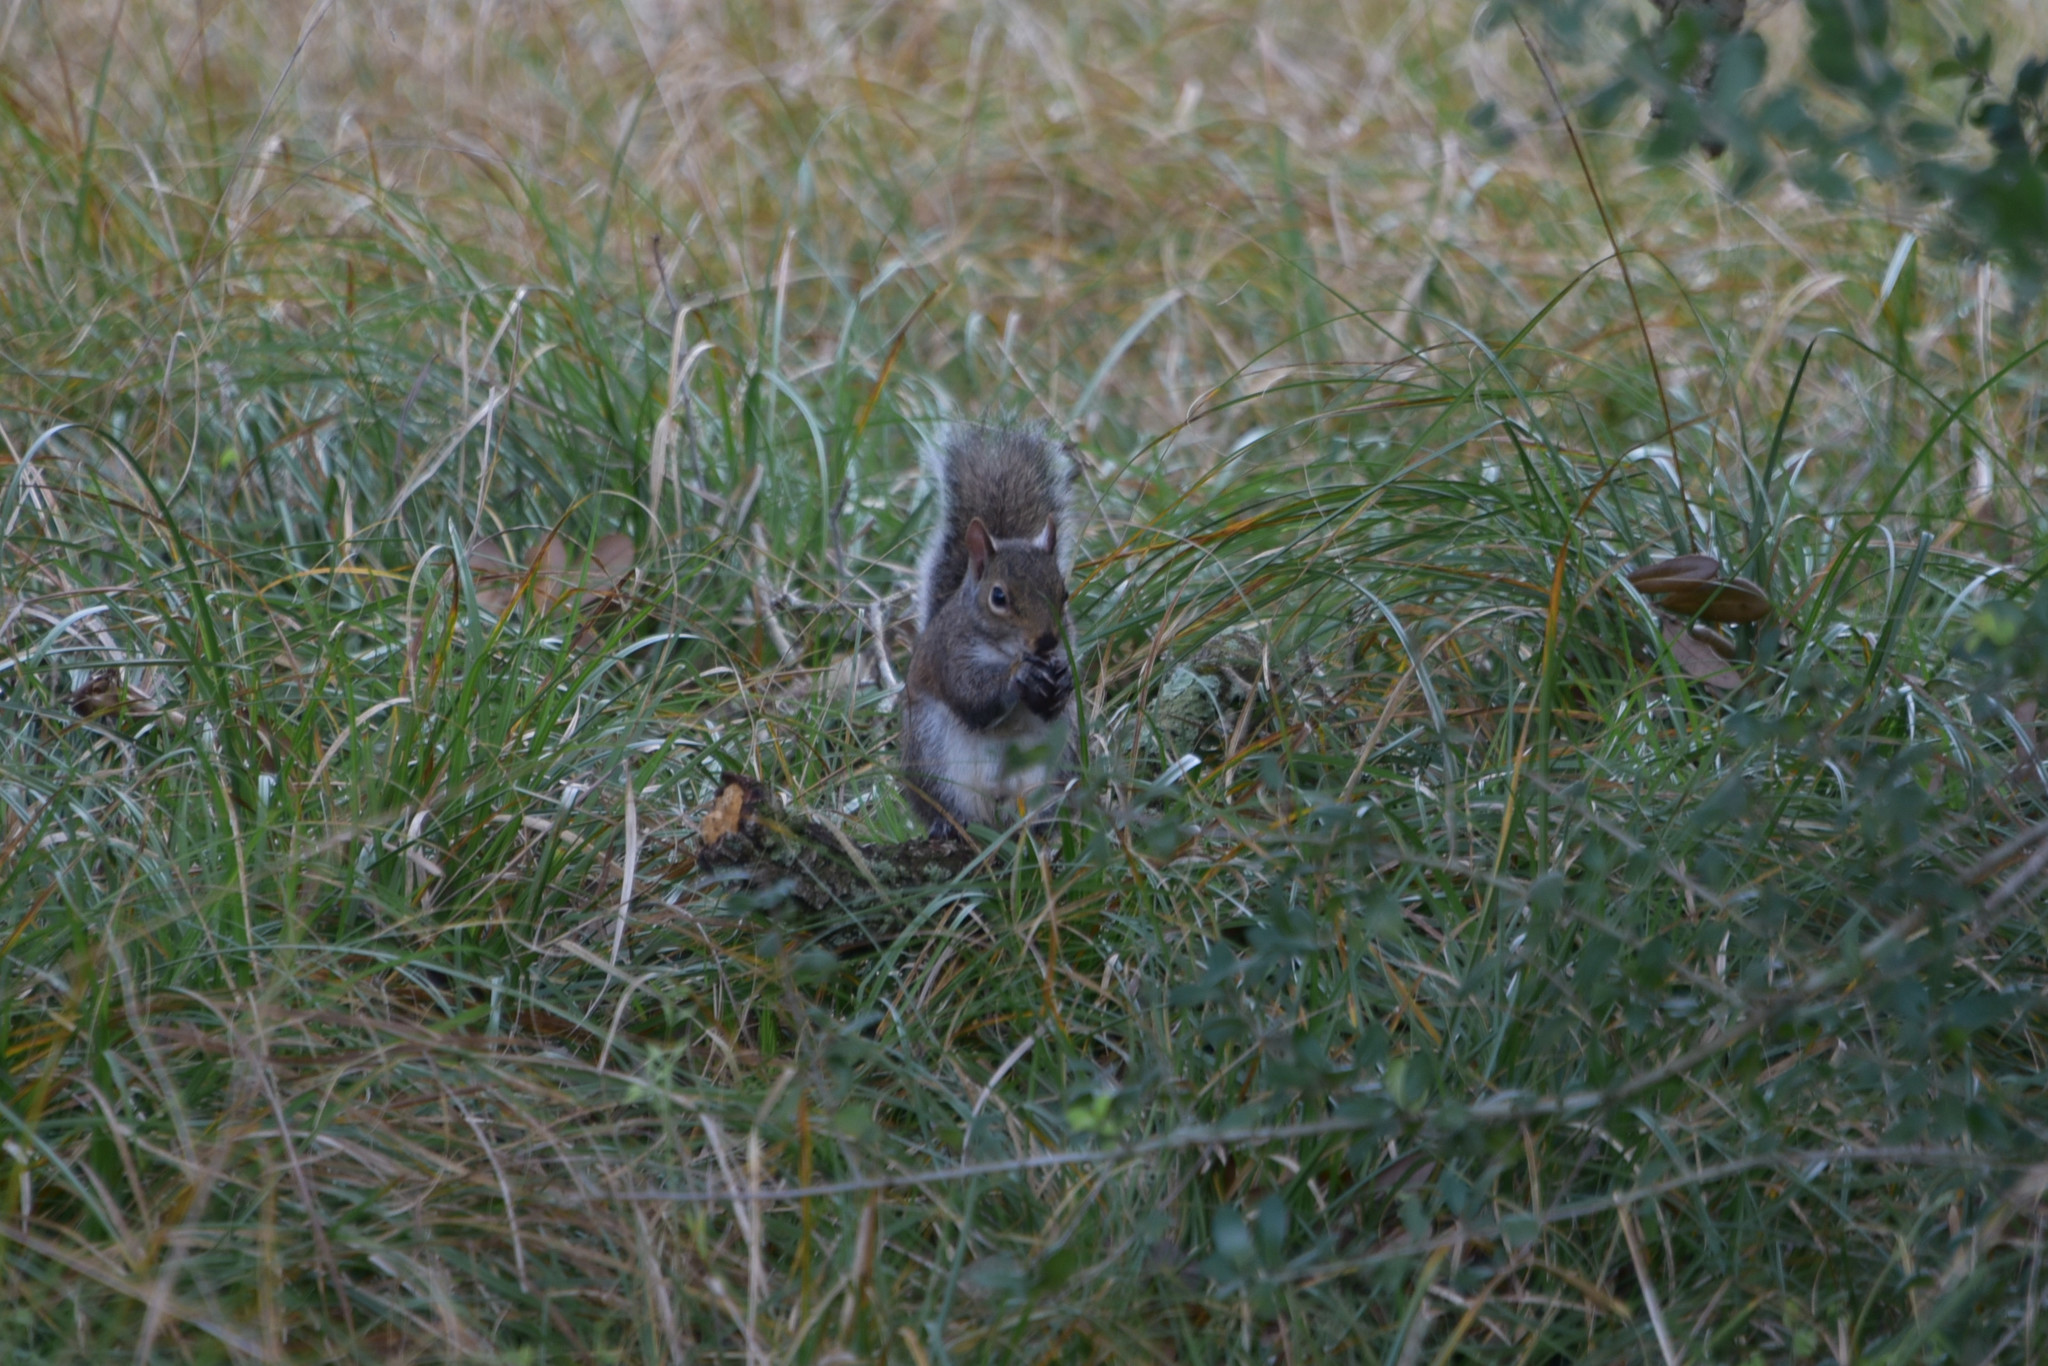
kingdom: Animalia
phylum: Chordata
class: Mammalia
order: Rodentia
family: Sciuridae
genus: Sciurus
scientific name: Sciurus carolinensis
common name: Eastern gray squirrel
